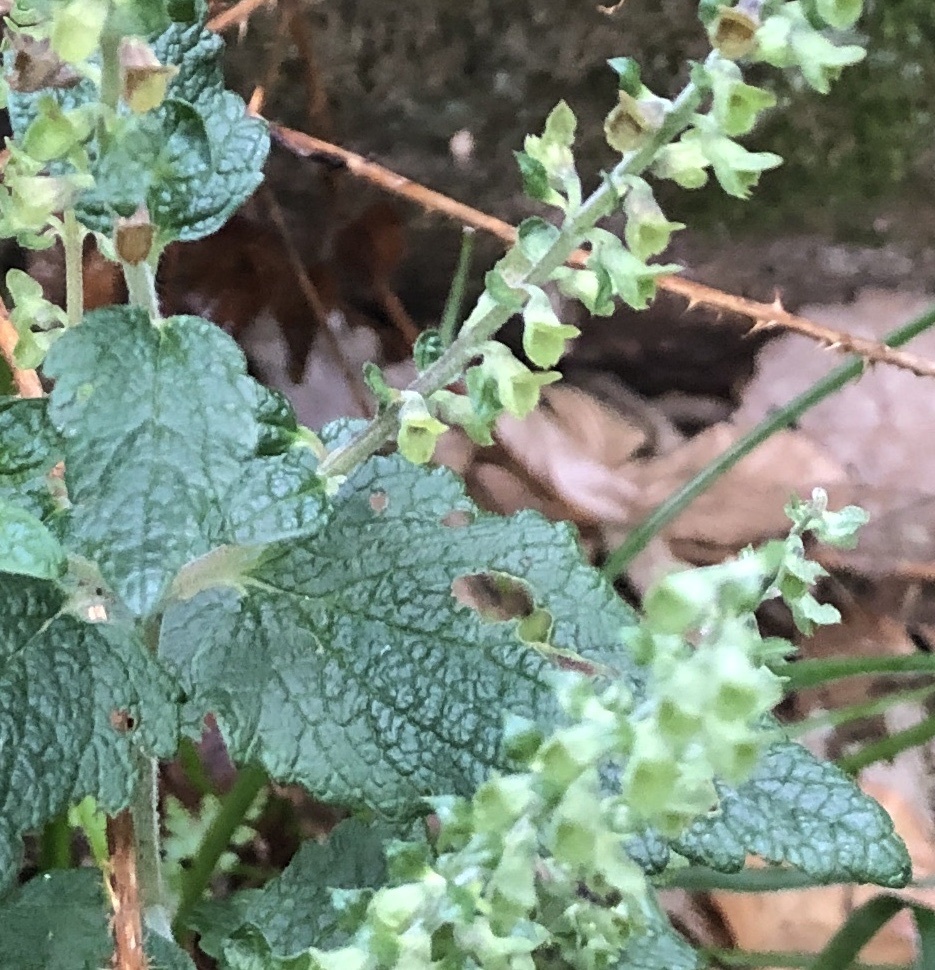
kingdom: Plantae
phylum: Tracheophyta
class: Magnoliopsida
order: Lamiales
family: Lamiaceae
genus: Teucrium
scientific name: Teucrium scorodonia
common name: Woodland germander
